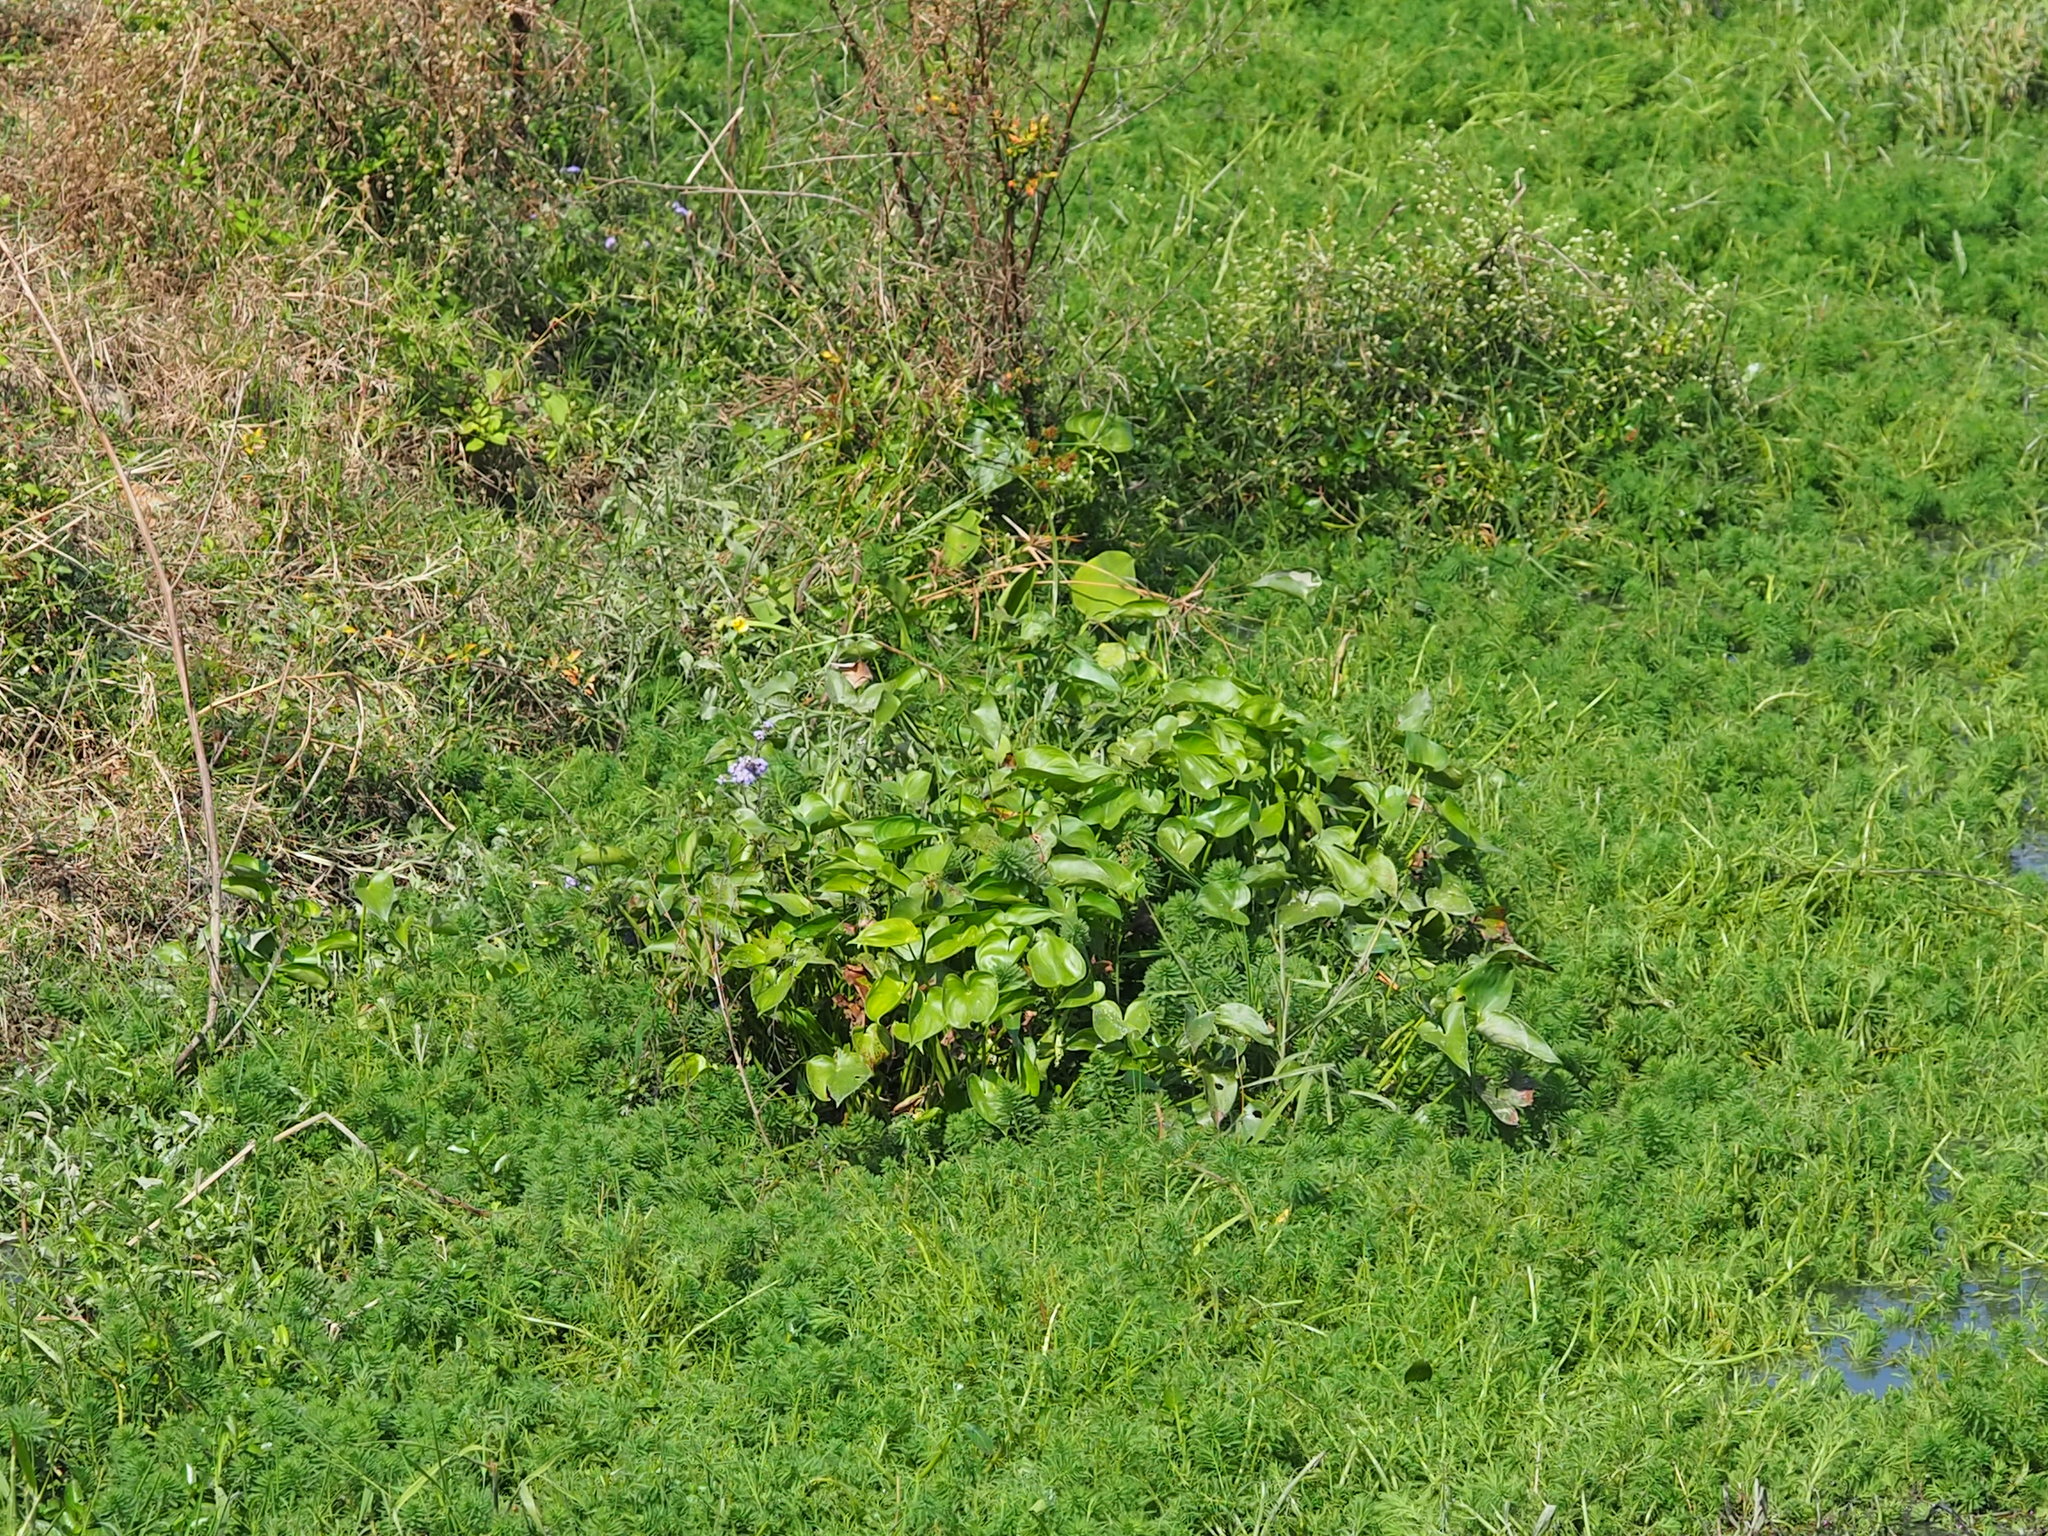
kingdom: Plantae
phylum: Tracheophyta
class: Liliopsida
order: Commelinales
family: Pontederiaceae
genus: Pontederia
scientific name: Pontederia vaginalis
